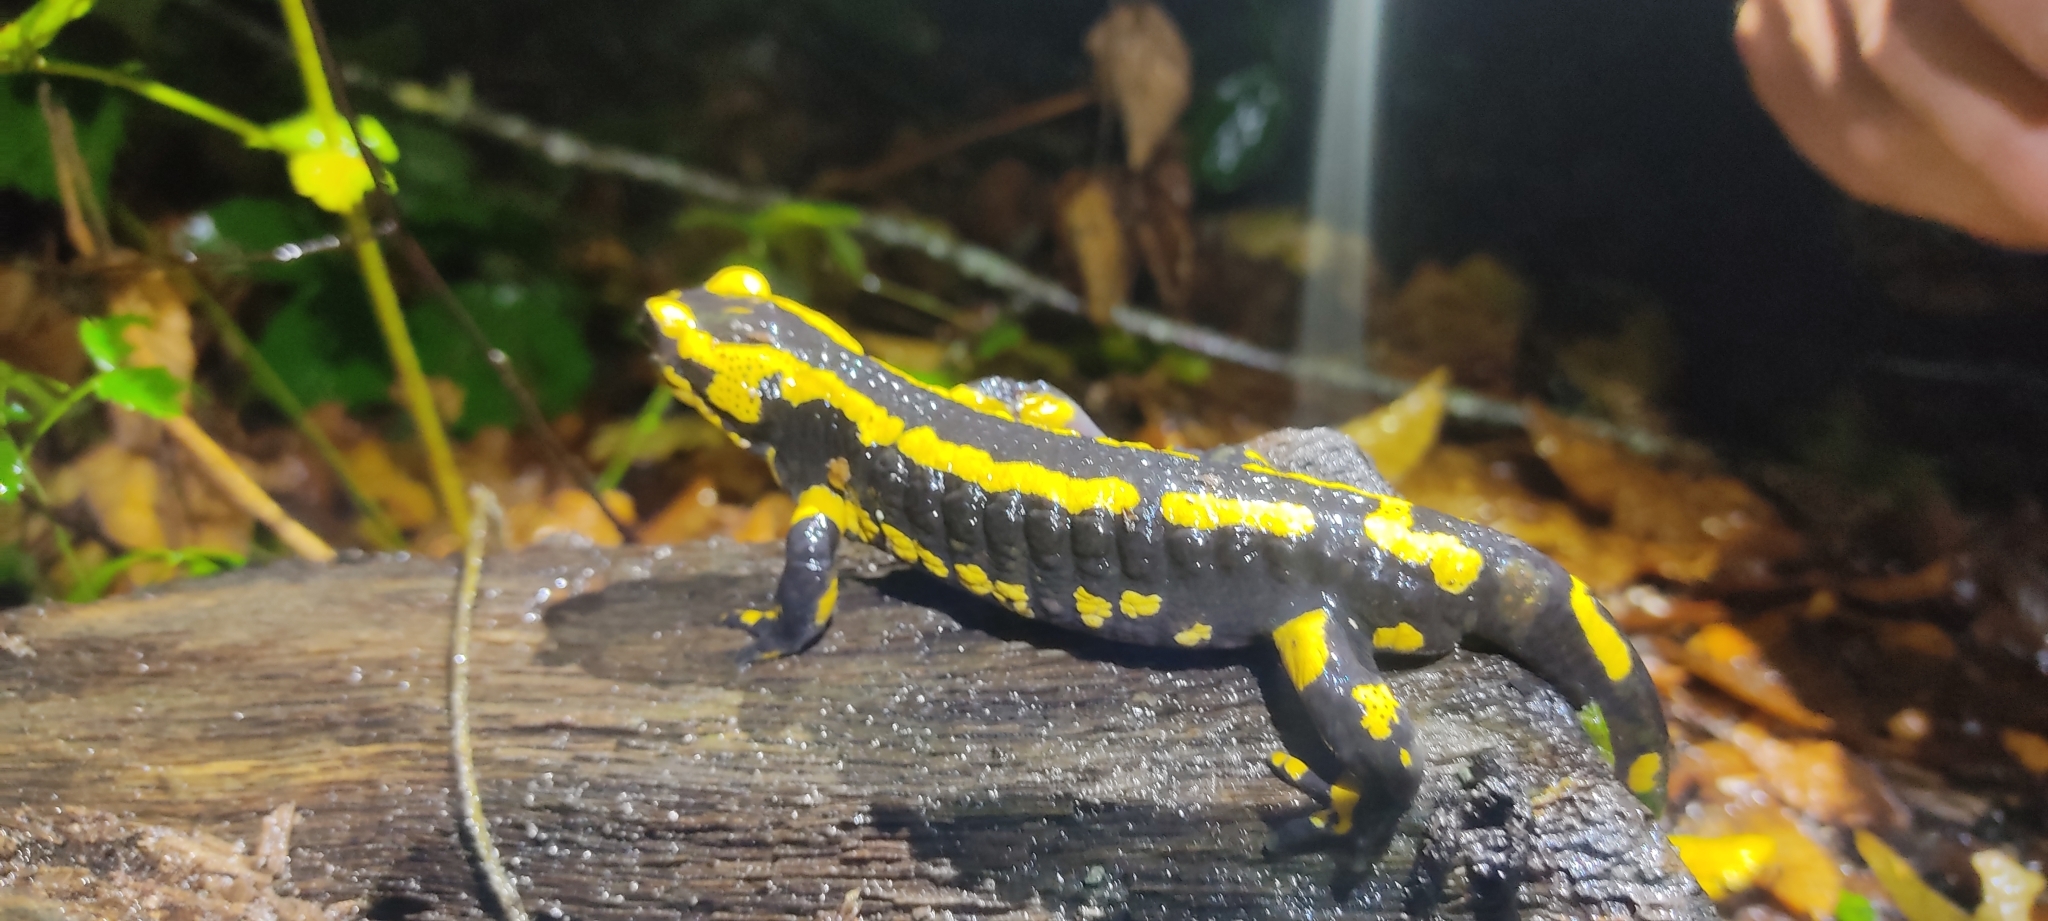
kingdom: Animalia
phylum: Chordata
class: Amphibia
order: Caudata
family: Salamandridae
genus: Salamandra
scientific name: Salamandra salamandra
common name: Fire salamander
